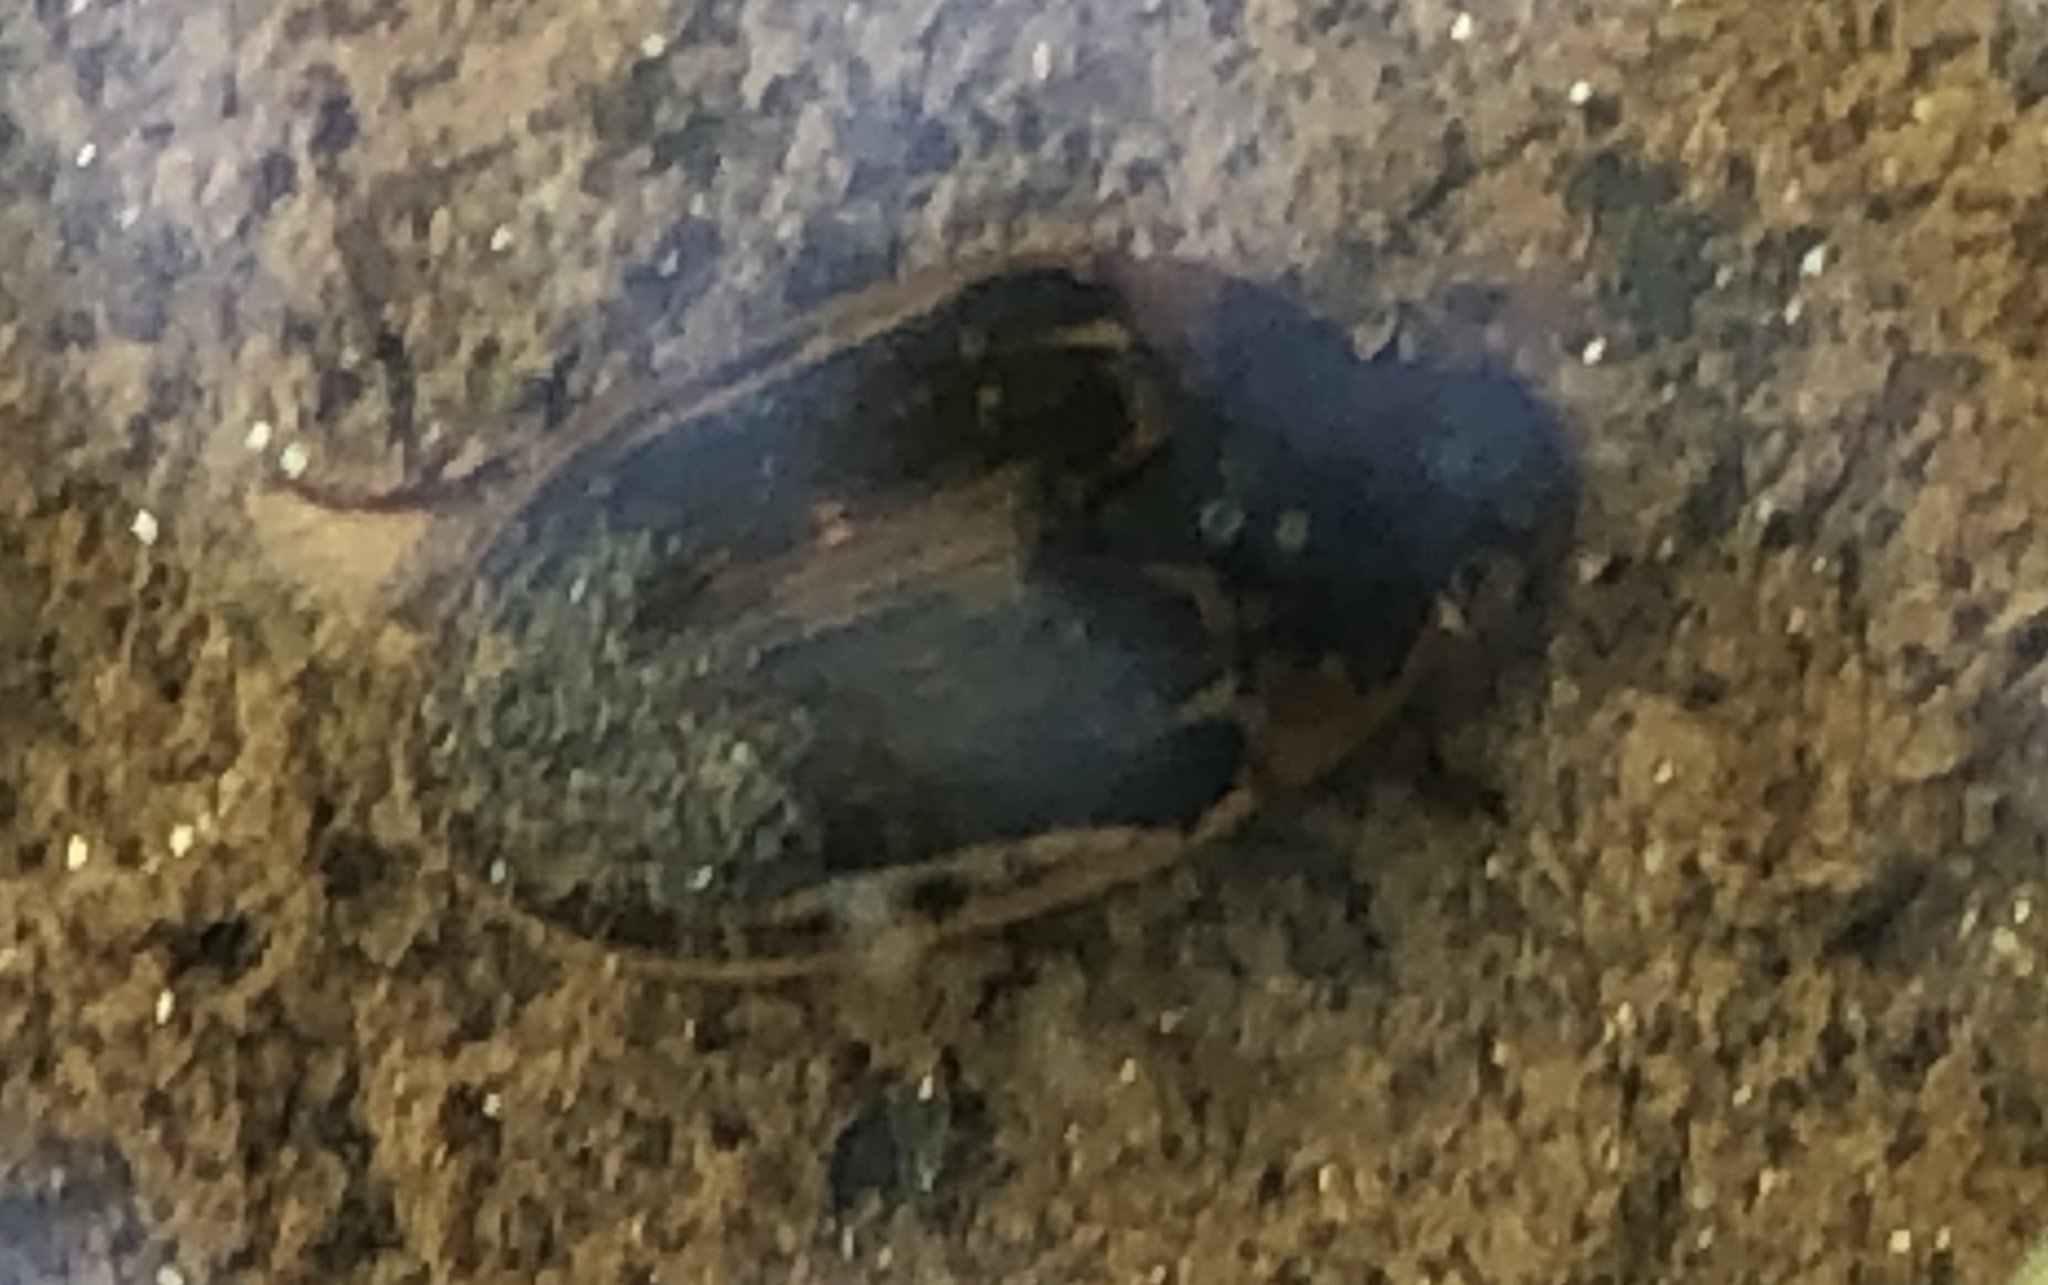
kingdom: Animalia
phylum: Arthropoda
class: Insecta
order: Coleoptera
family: Hydrophilidae
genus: Tropisternus
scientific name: Tropisternus collaris
